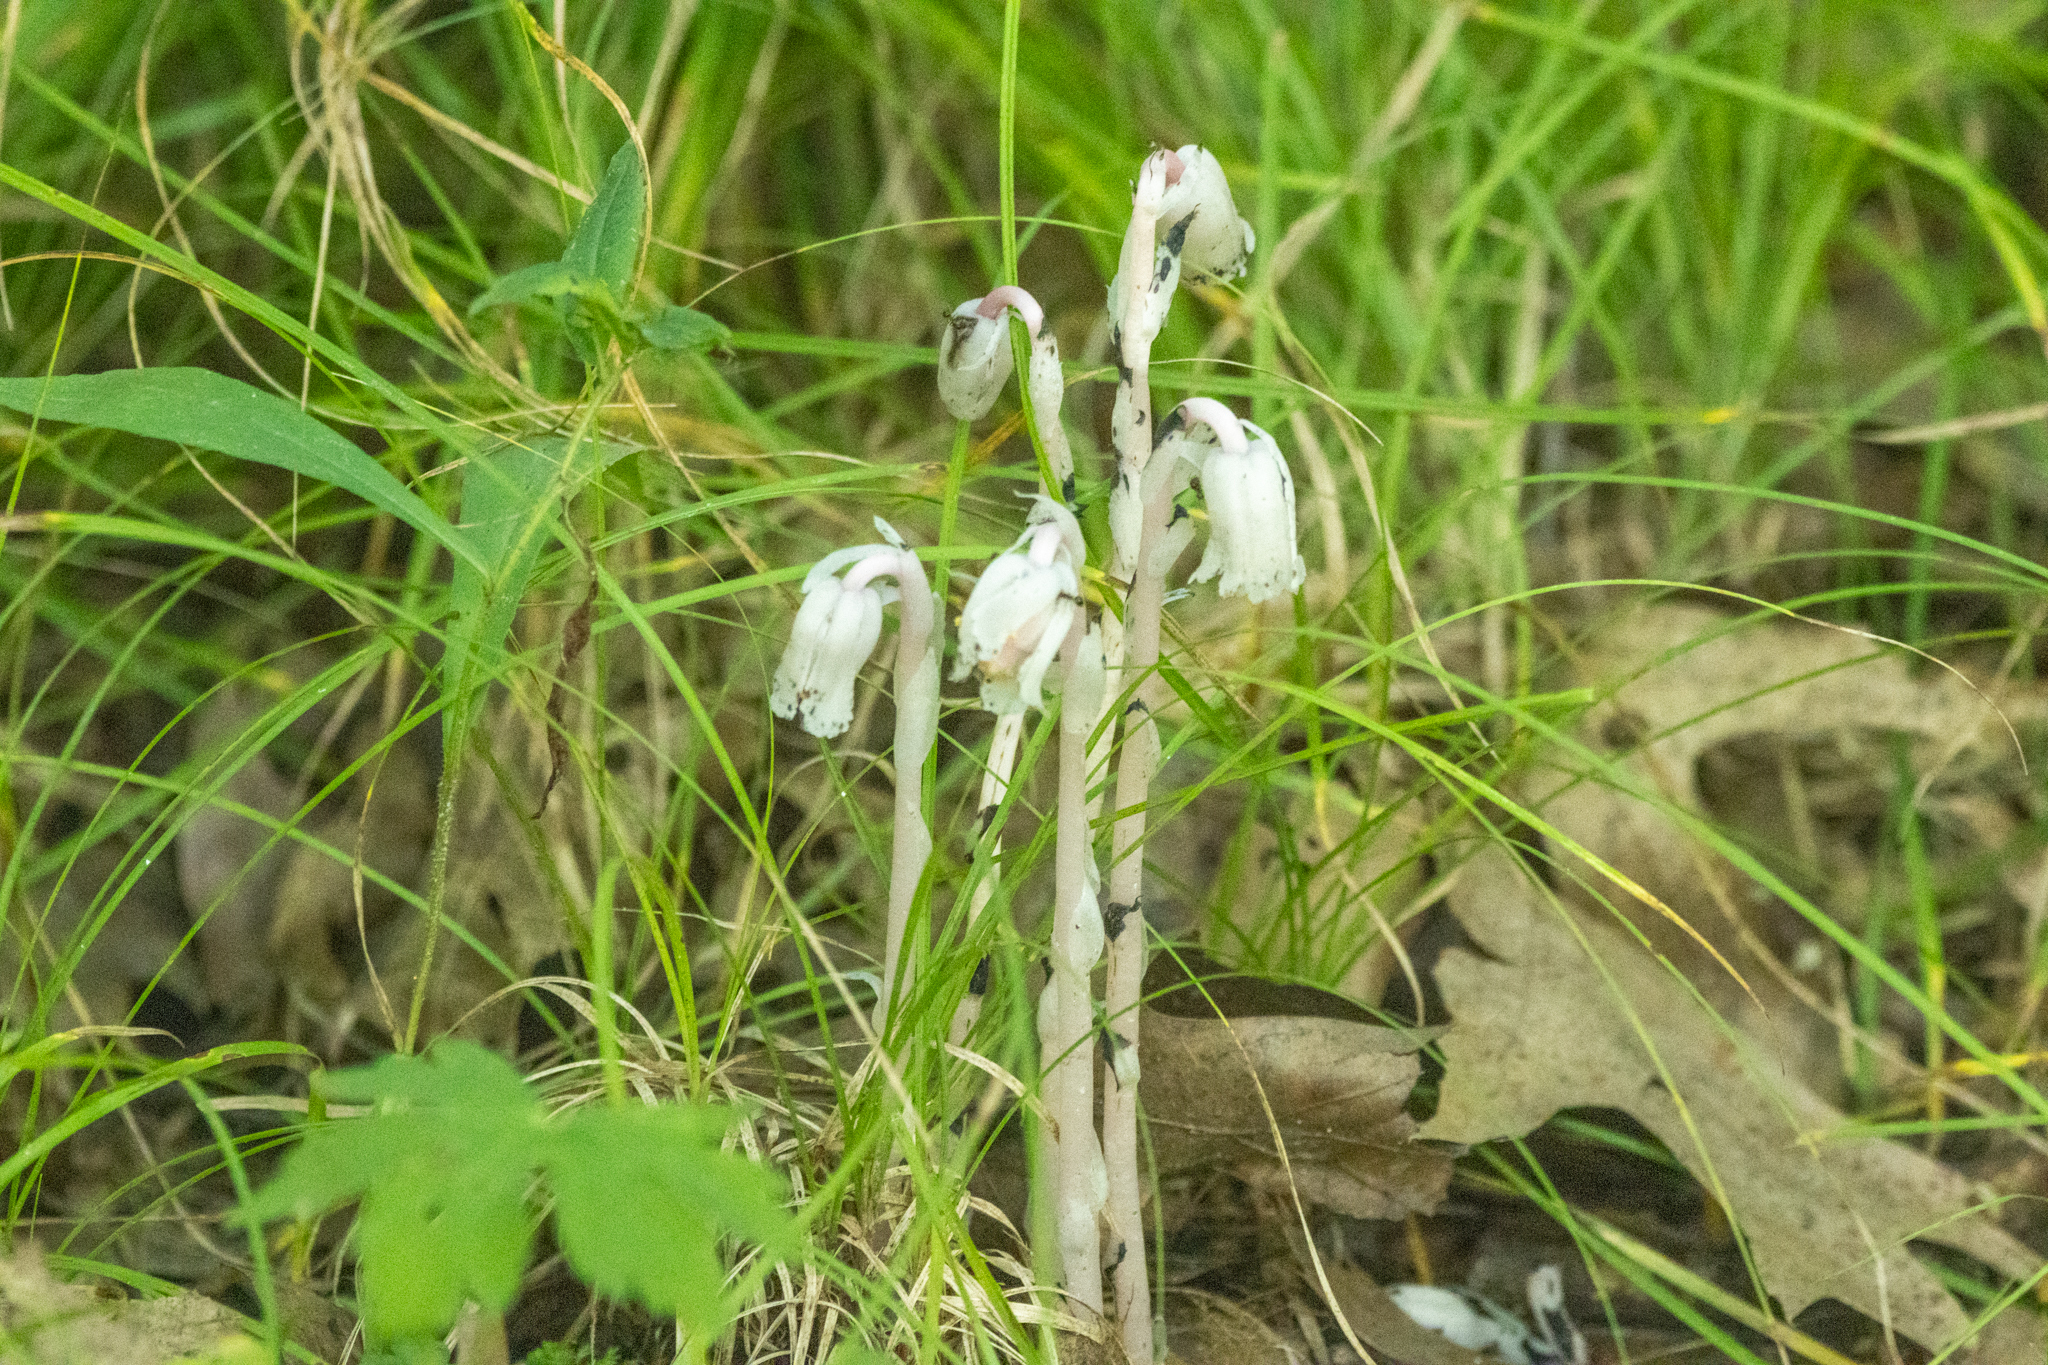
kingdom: Plantae
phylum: Tracheophyta
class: Magnoliopsida
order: Ericales
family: Ericaceae
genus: Monotropa
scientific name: Monotropa uniflora
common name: Convulsion root
